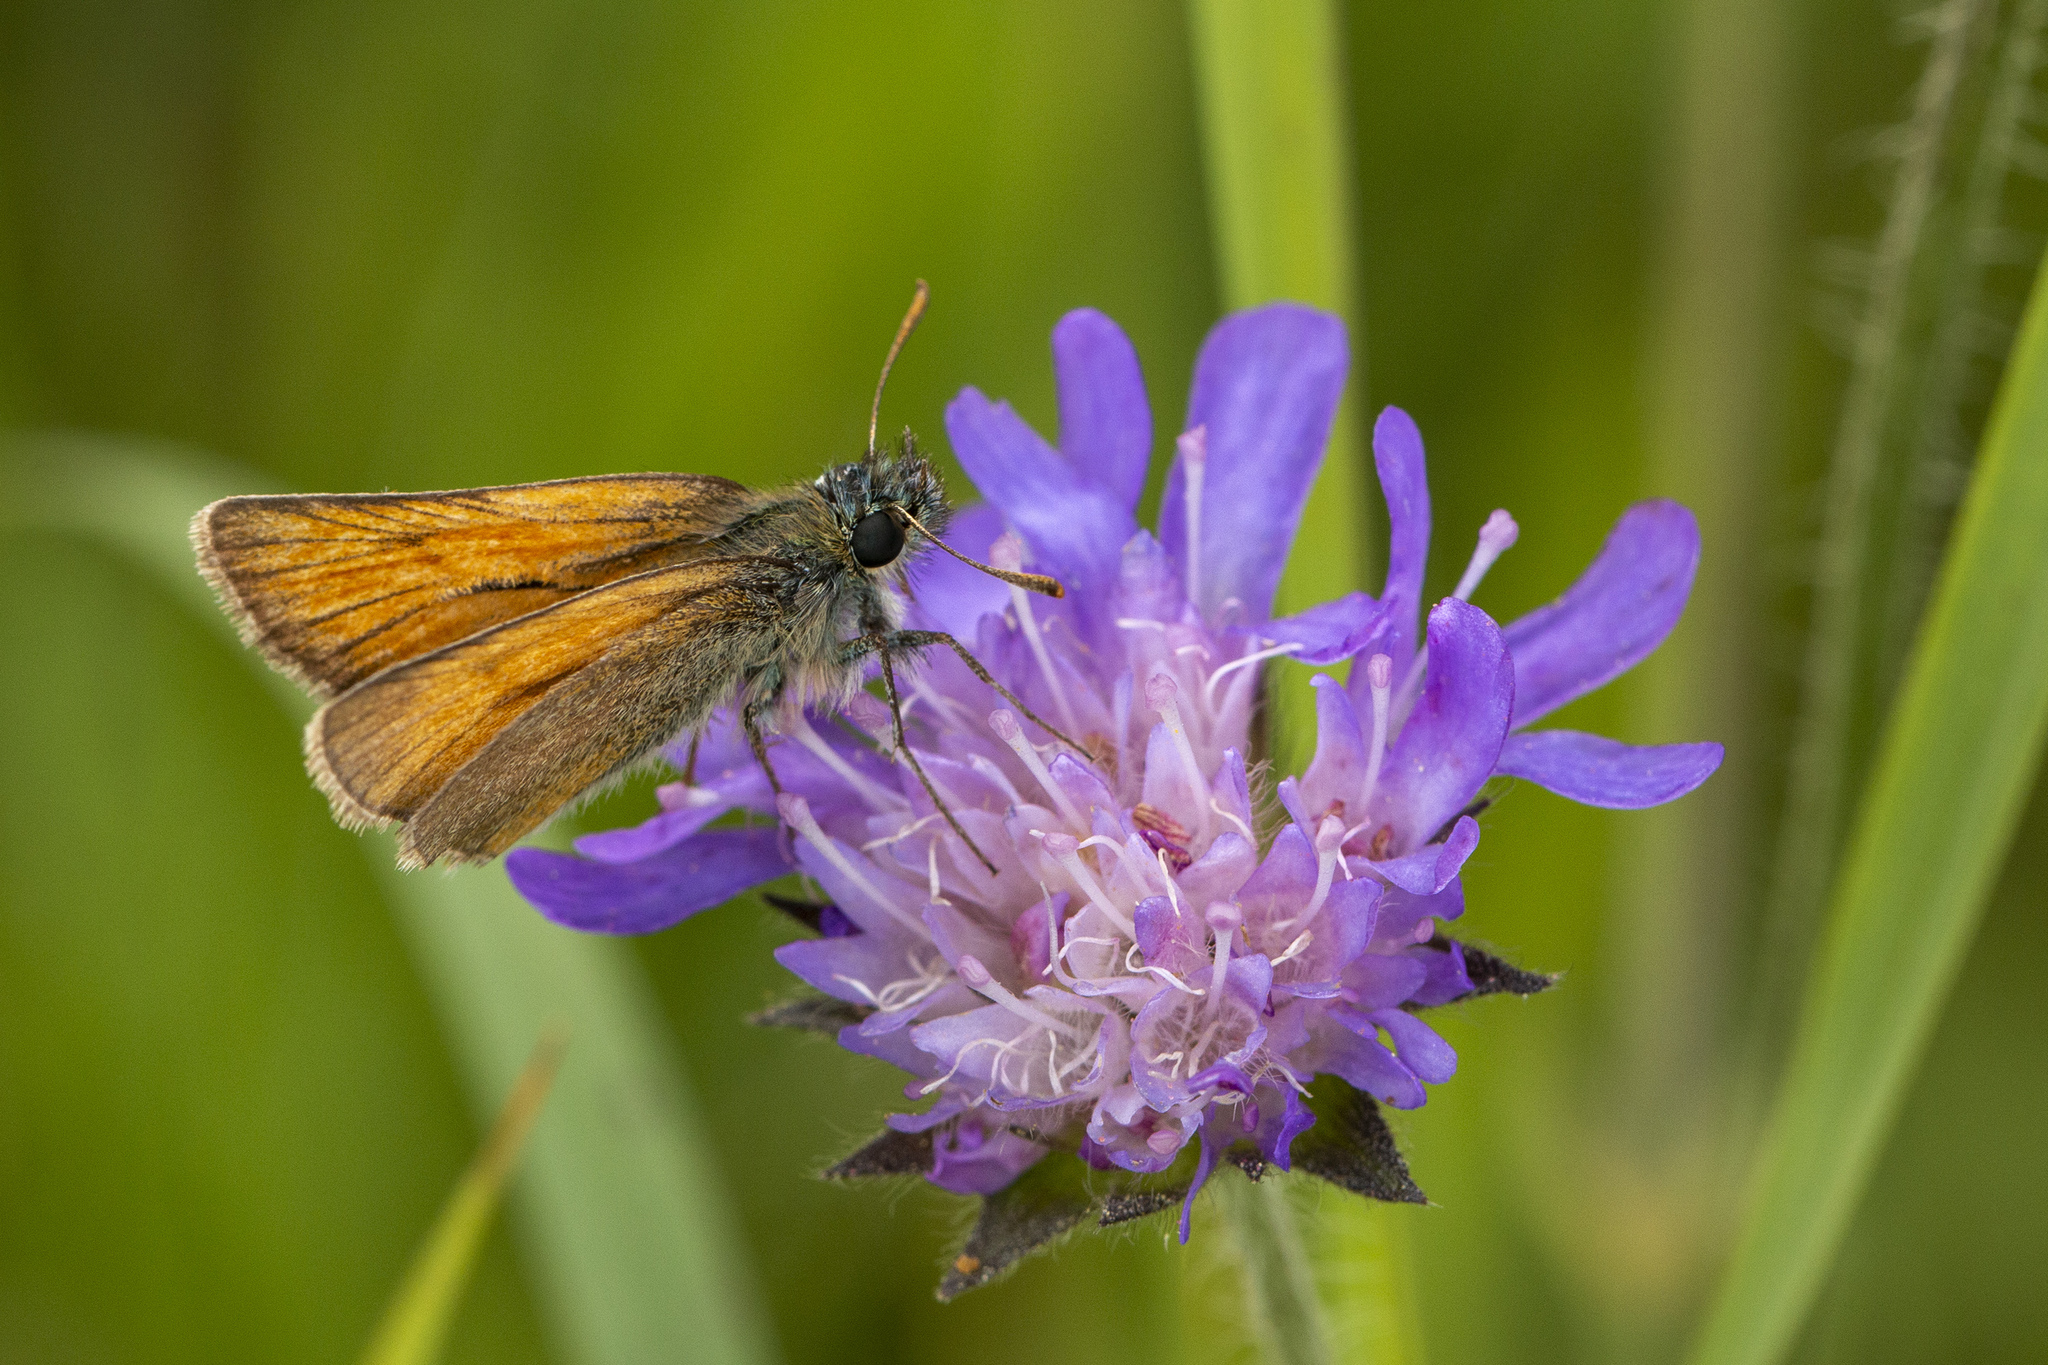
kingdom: Animalia
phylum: Arthropoda
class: Insecta
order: Lepidoptera
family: Hesperiidae
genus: Thymelicus
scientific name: Thymelicus sylvestris
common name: Small skipper
